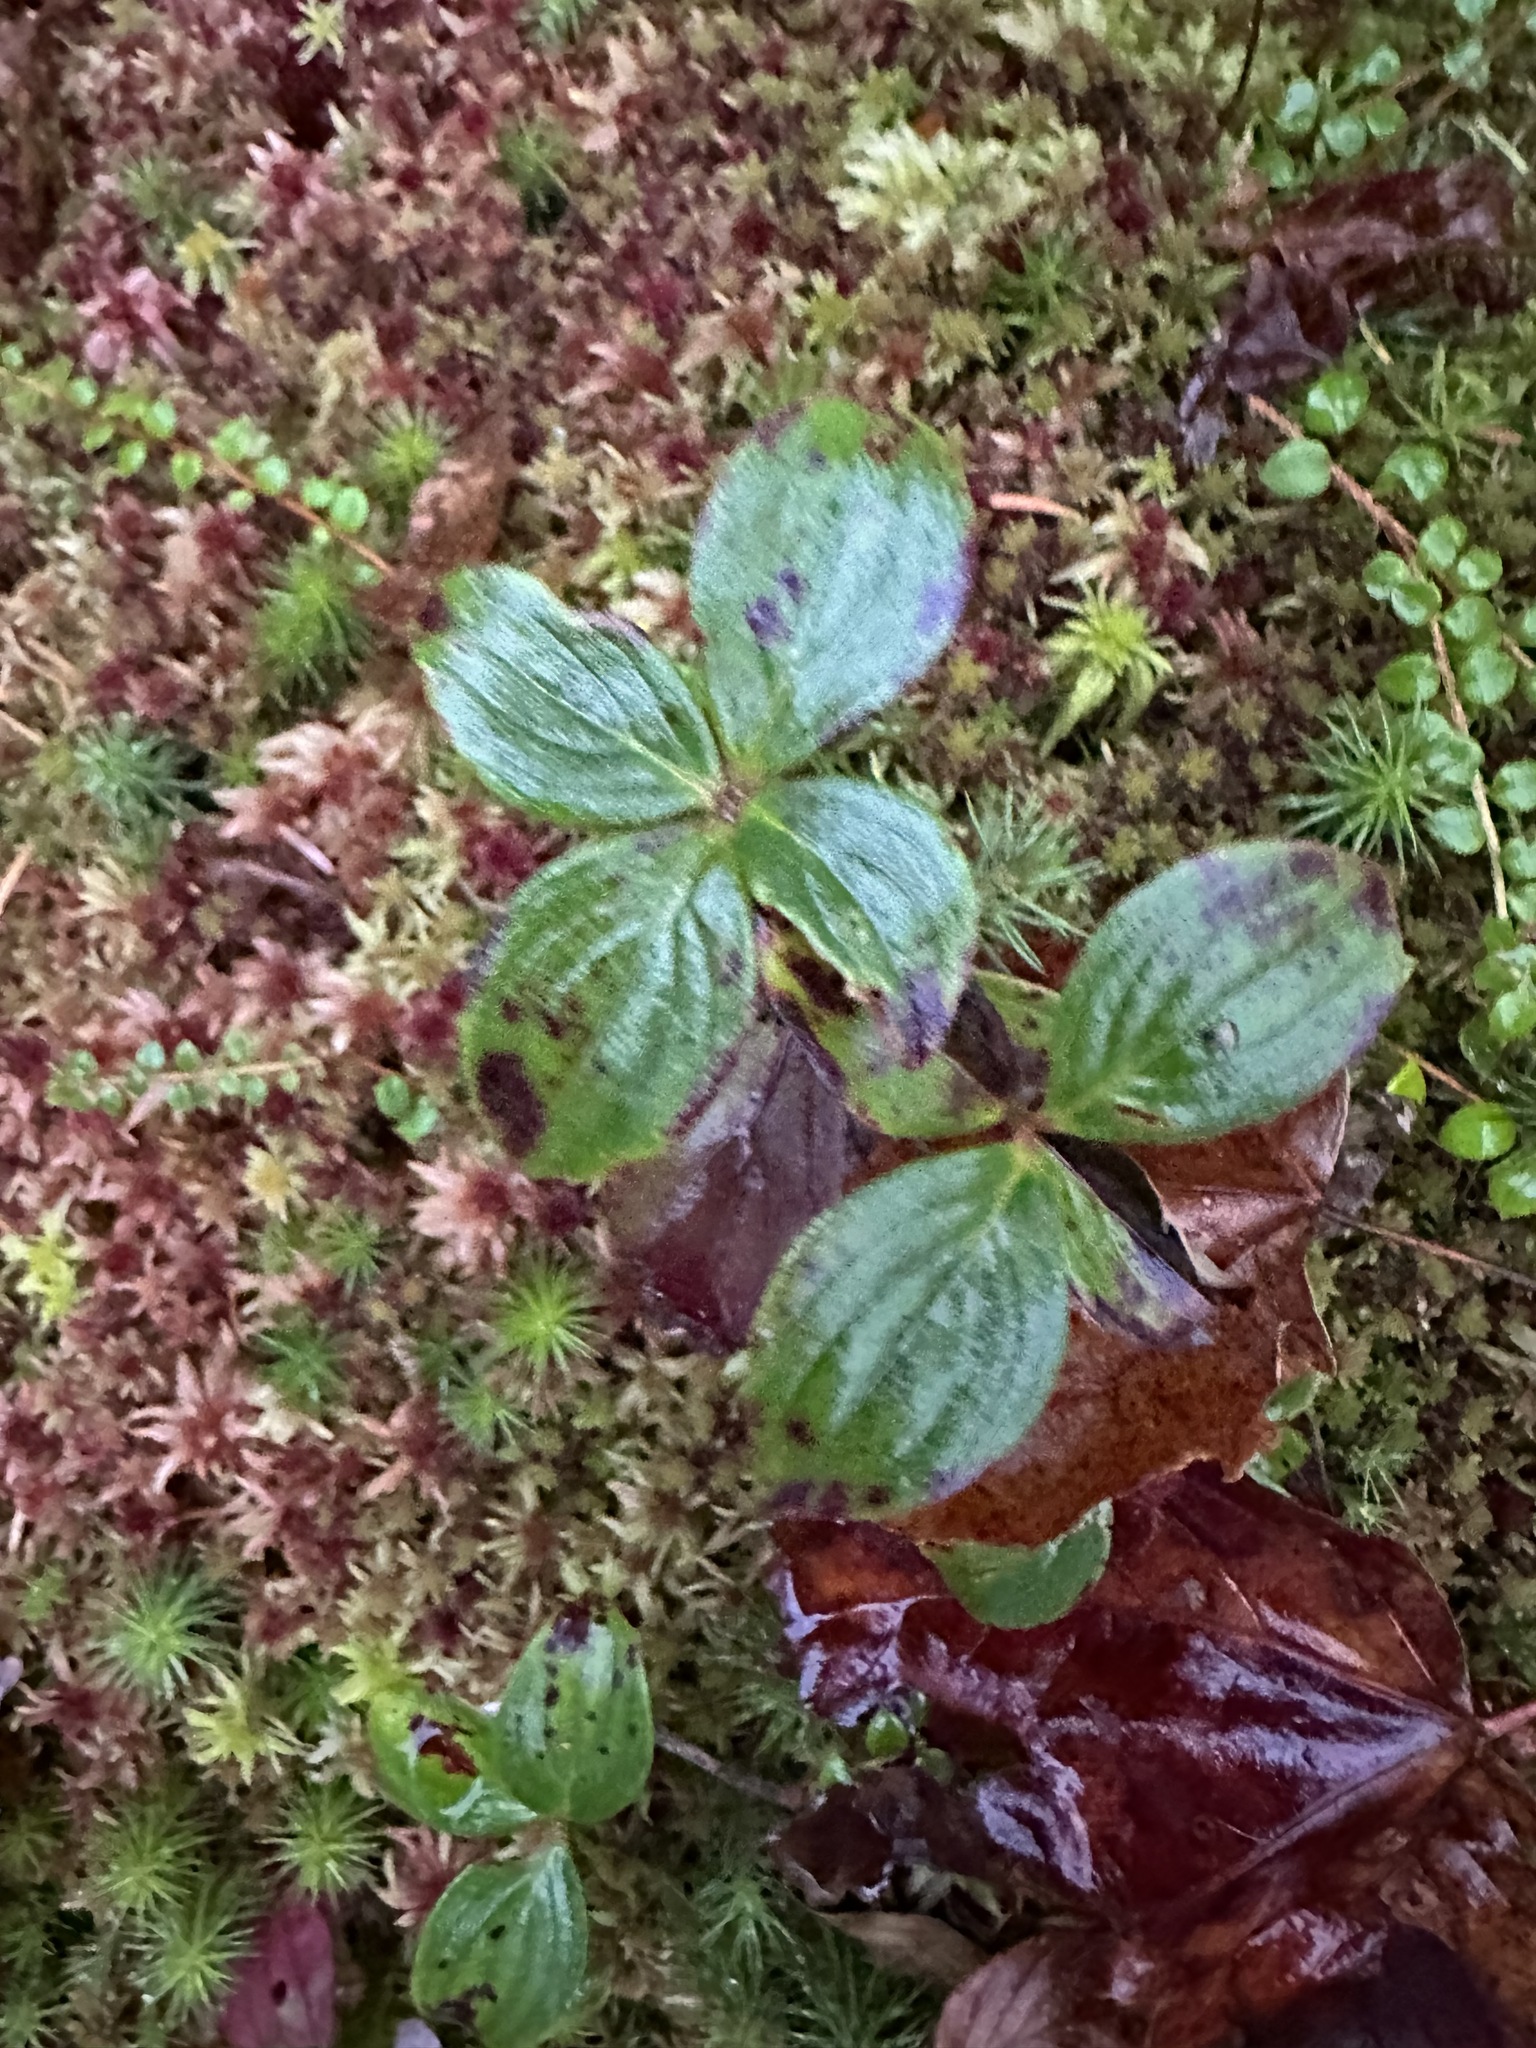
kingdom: Plantae
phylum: Tracheophyta
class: Magnoliopsida
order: Cornales
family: Cornaceae
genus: Cornus
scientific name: Cornus canadensis
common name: Creeping dogwood
